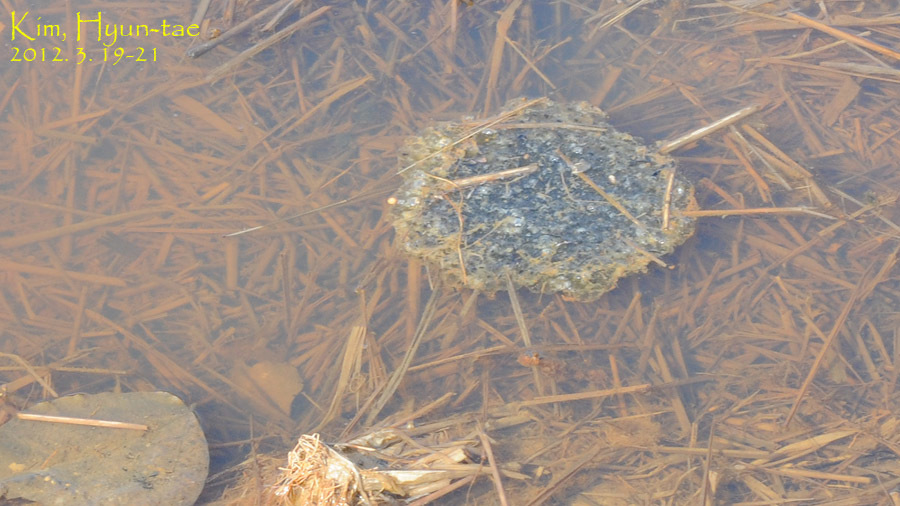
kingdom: Animalia
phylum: Chordata
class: Amphibia
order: Anura
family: Ranidae
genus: Rana
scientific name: Rana uenoi
